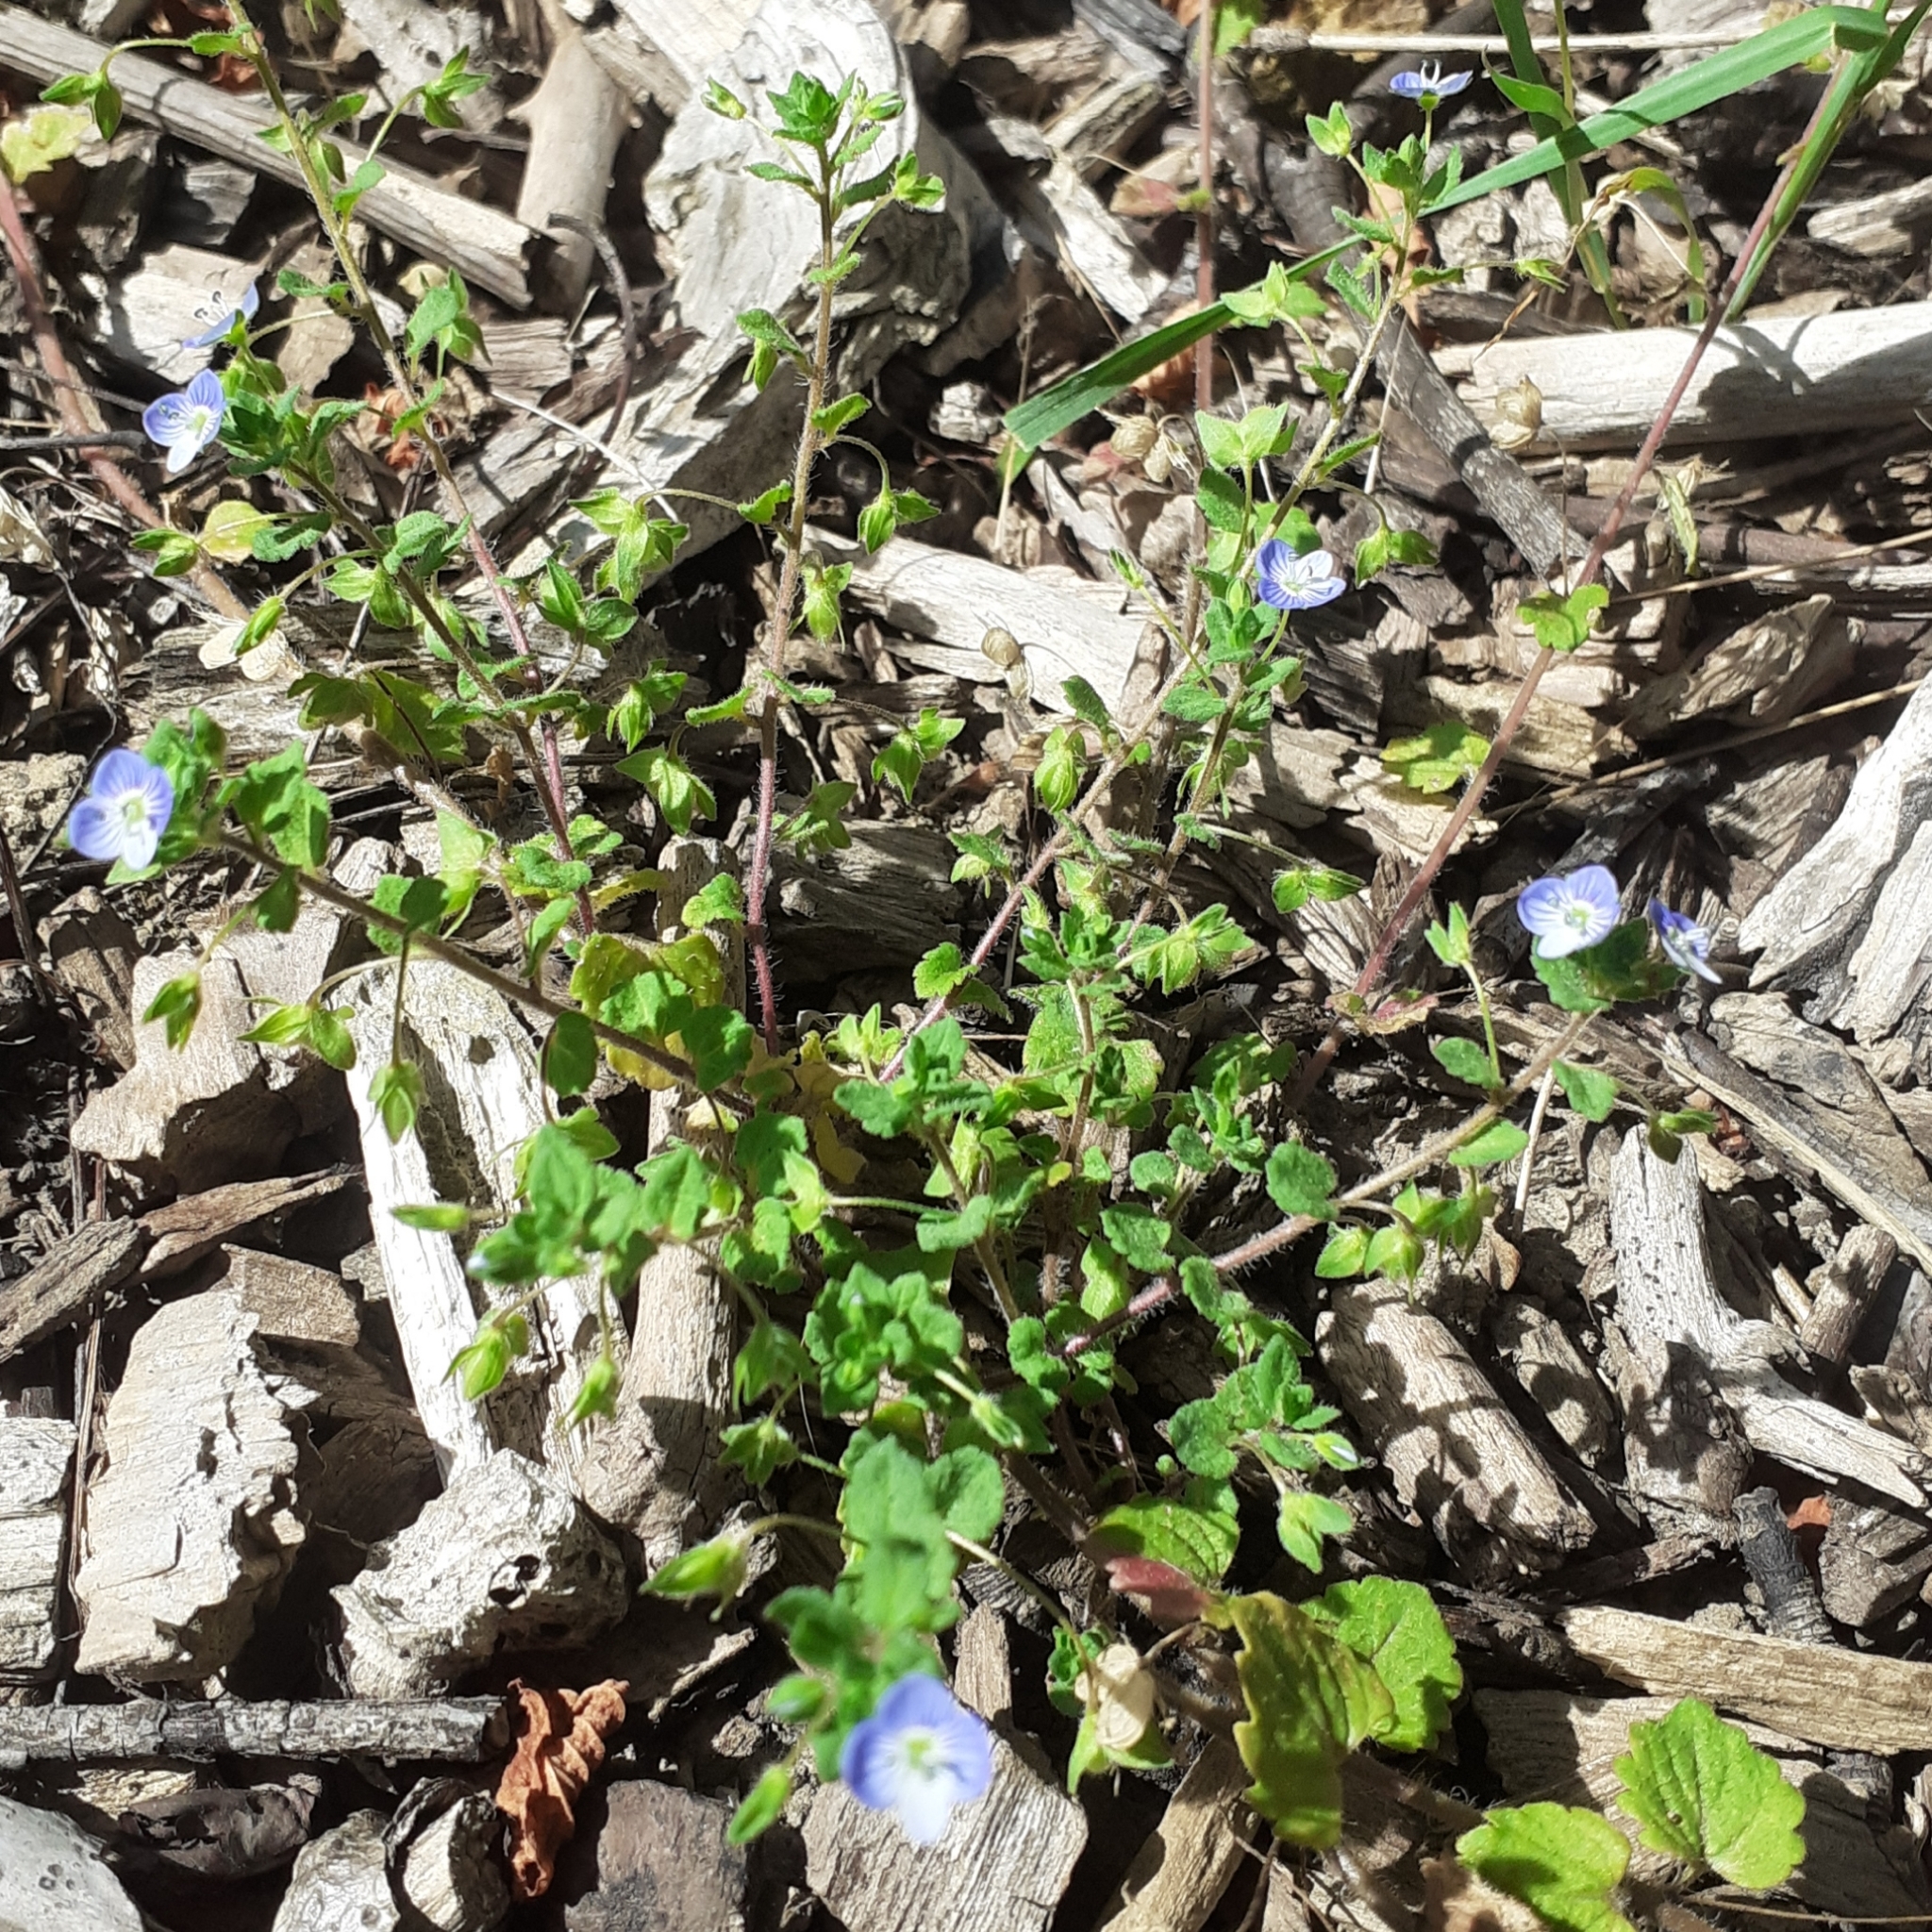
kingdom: Plantae
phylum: Tracheophyta
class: Magnoliopsida
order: Lamiales
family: Plantaginaceae
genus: Veronica
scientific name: Veronica persica
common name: Common field-speedwell
